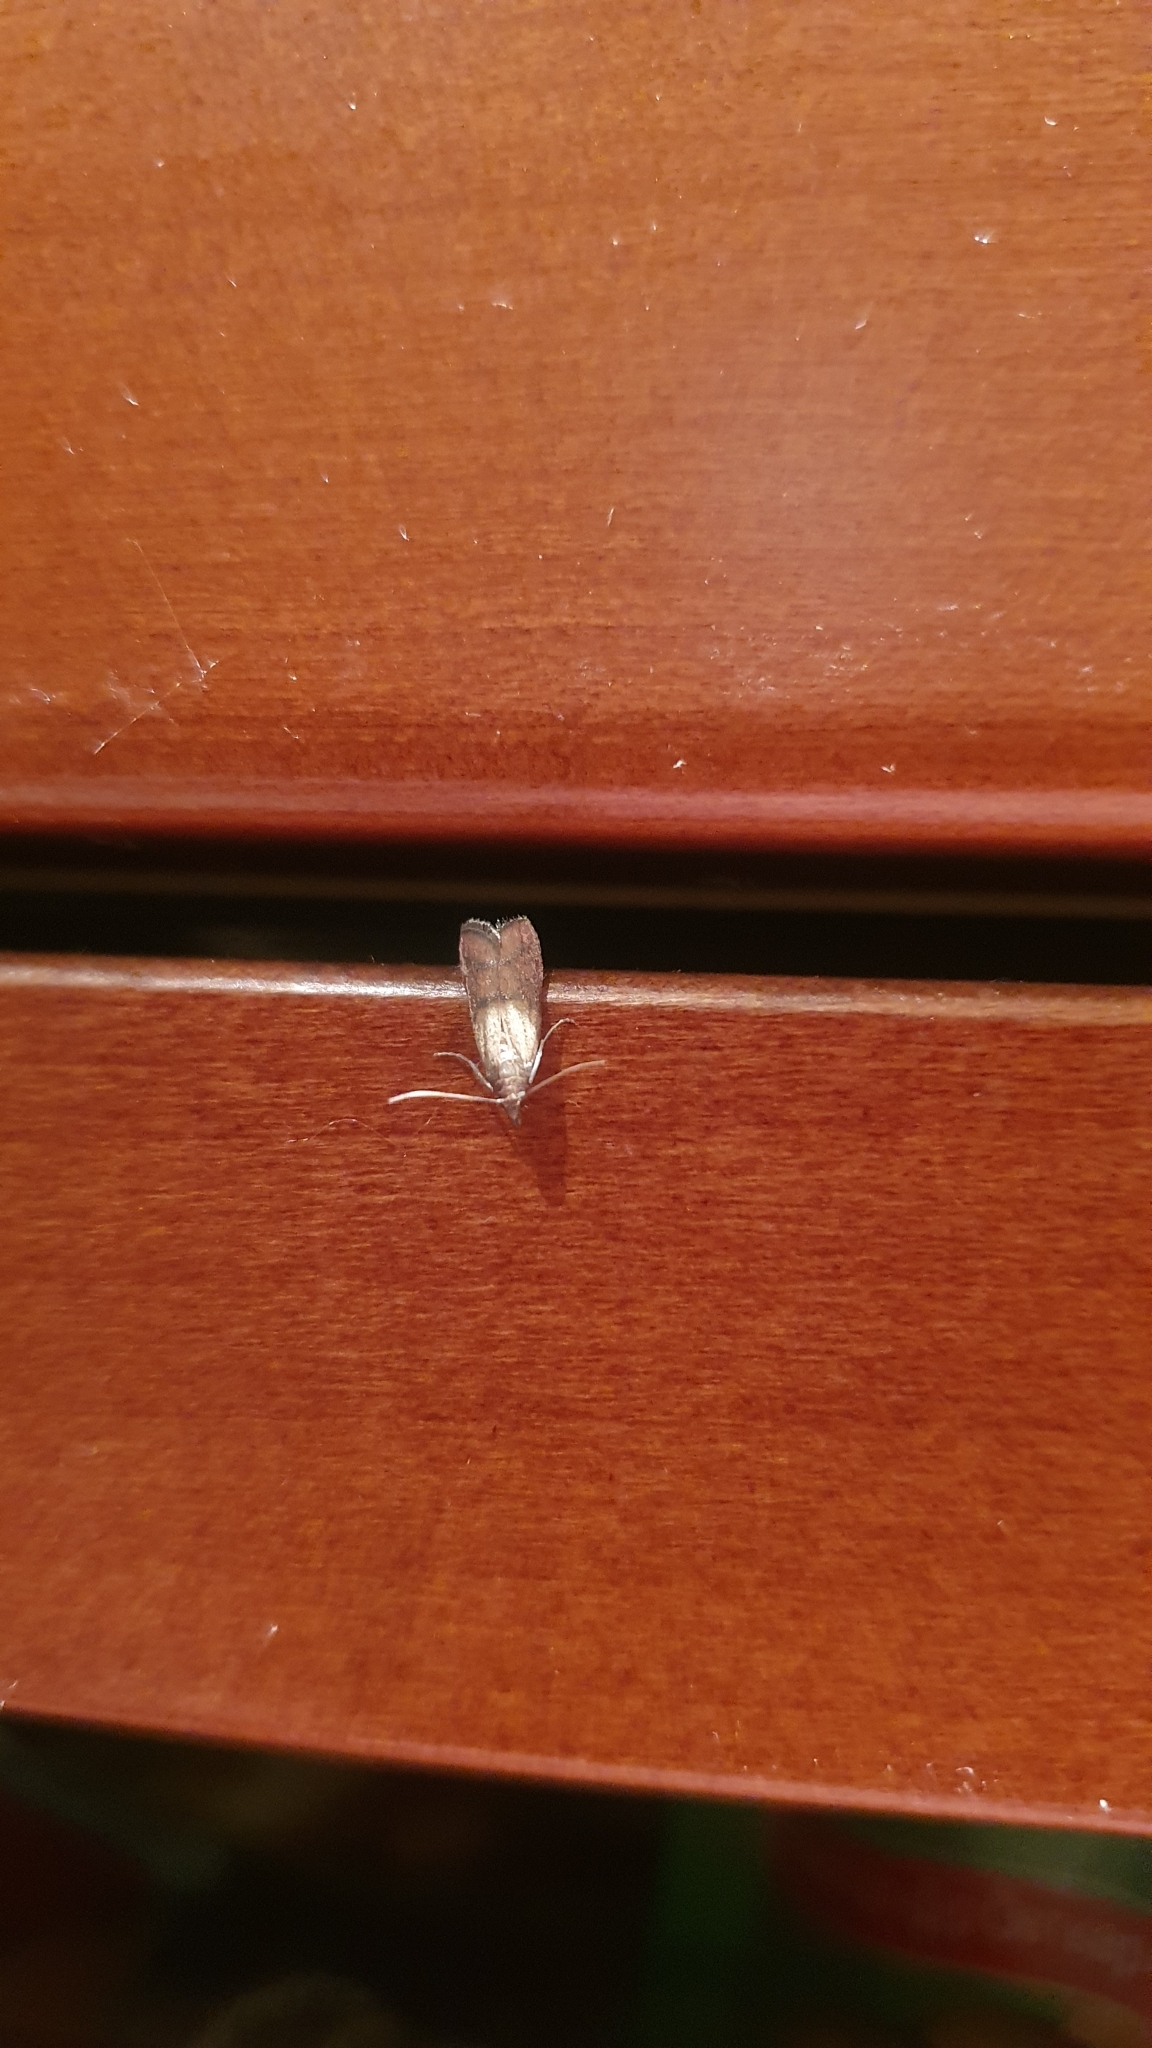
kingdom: Animalia
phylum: Arthropoda
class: Insecta
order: Lepidoptera
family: Pyralidae
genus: Plodia
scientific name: Plodia interpunctella
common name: Indian meal moth
